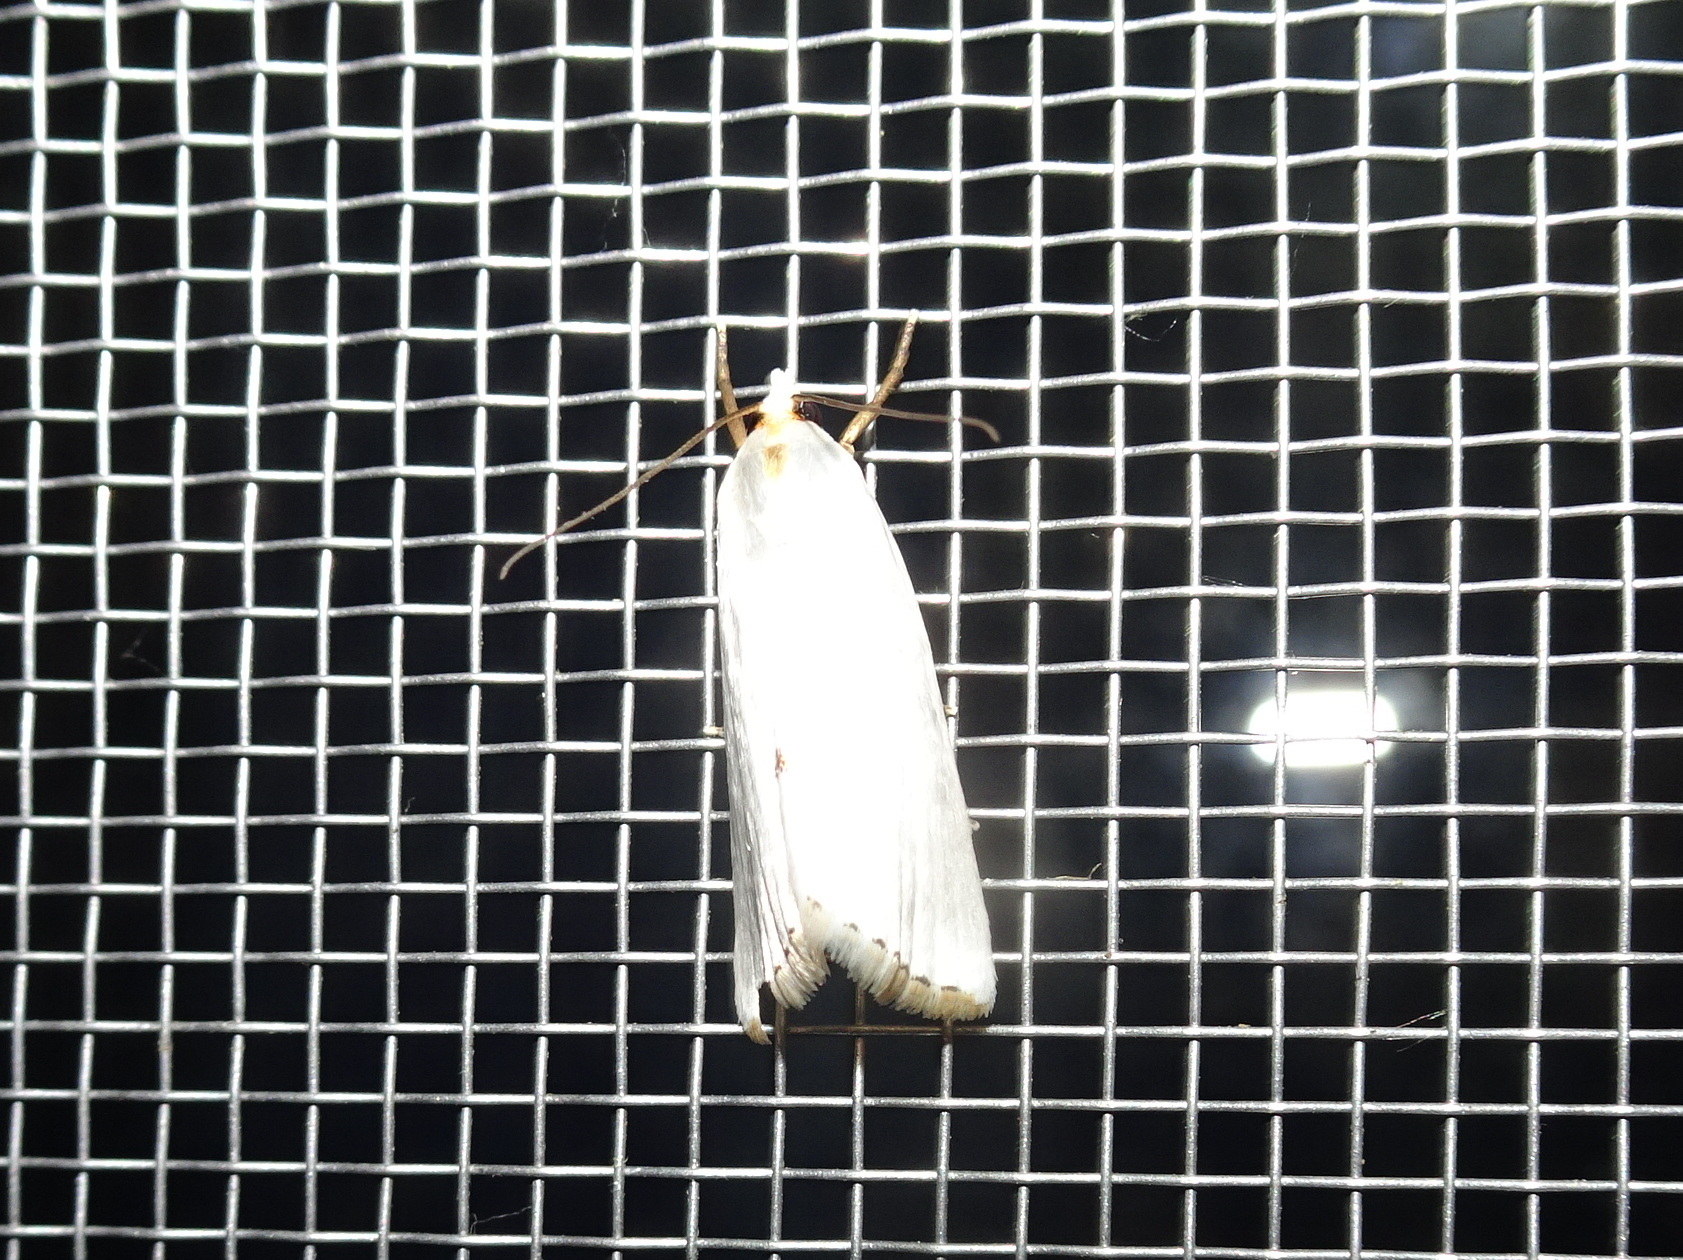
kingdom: Animalia
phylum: Arthropoda
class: Insecta
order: Lepidoptera
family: Crambidae
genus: Argyria
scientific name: Argyria nivalis
